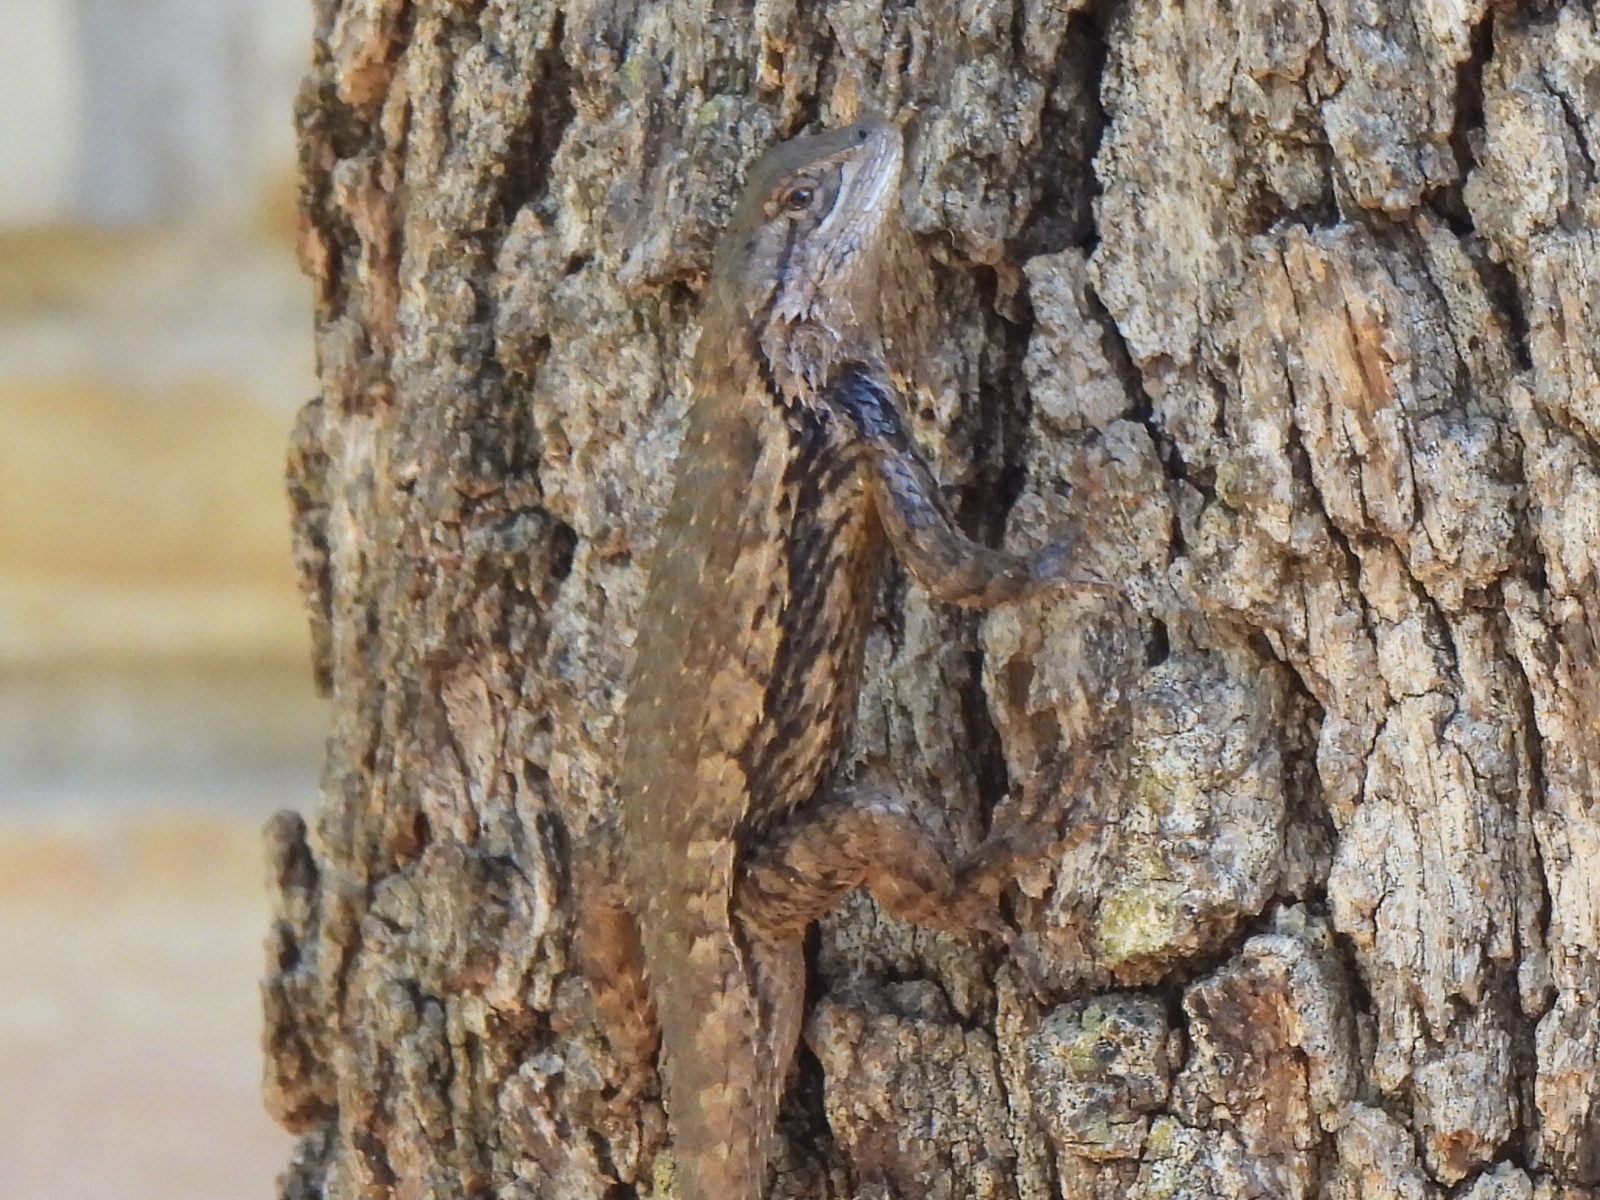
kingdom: Animalia
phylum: Chordata
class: Squamata
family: Phrynosomatidae
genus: Sceloporus
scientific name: Sceloporus olivaceus
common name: Texas spiny lizard
